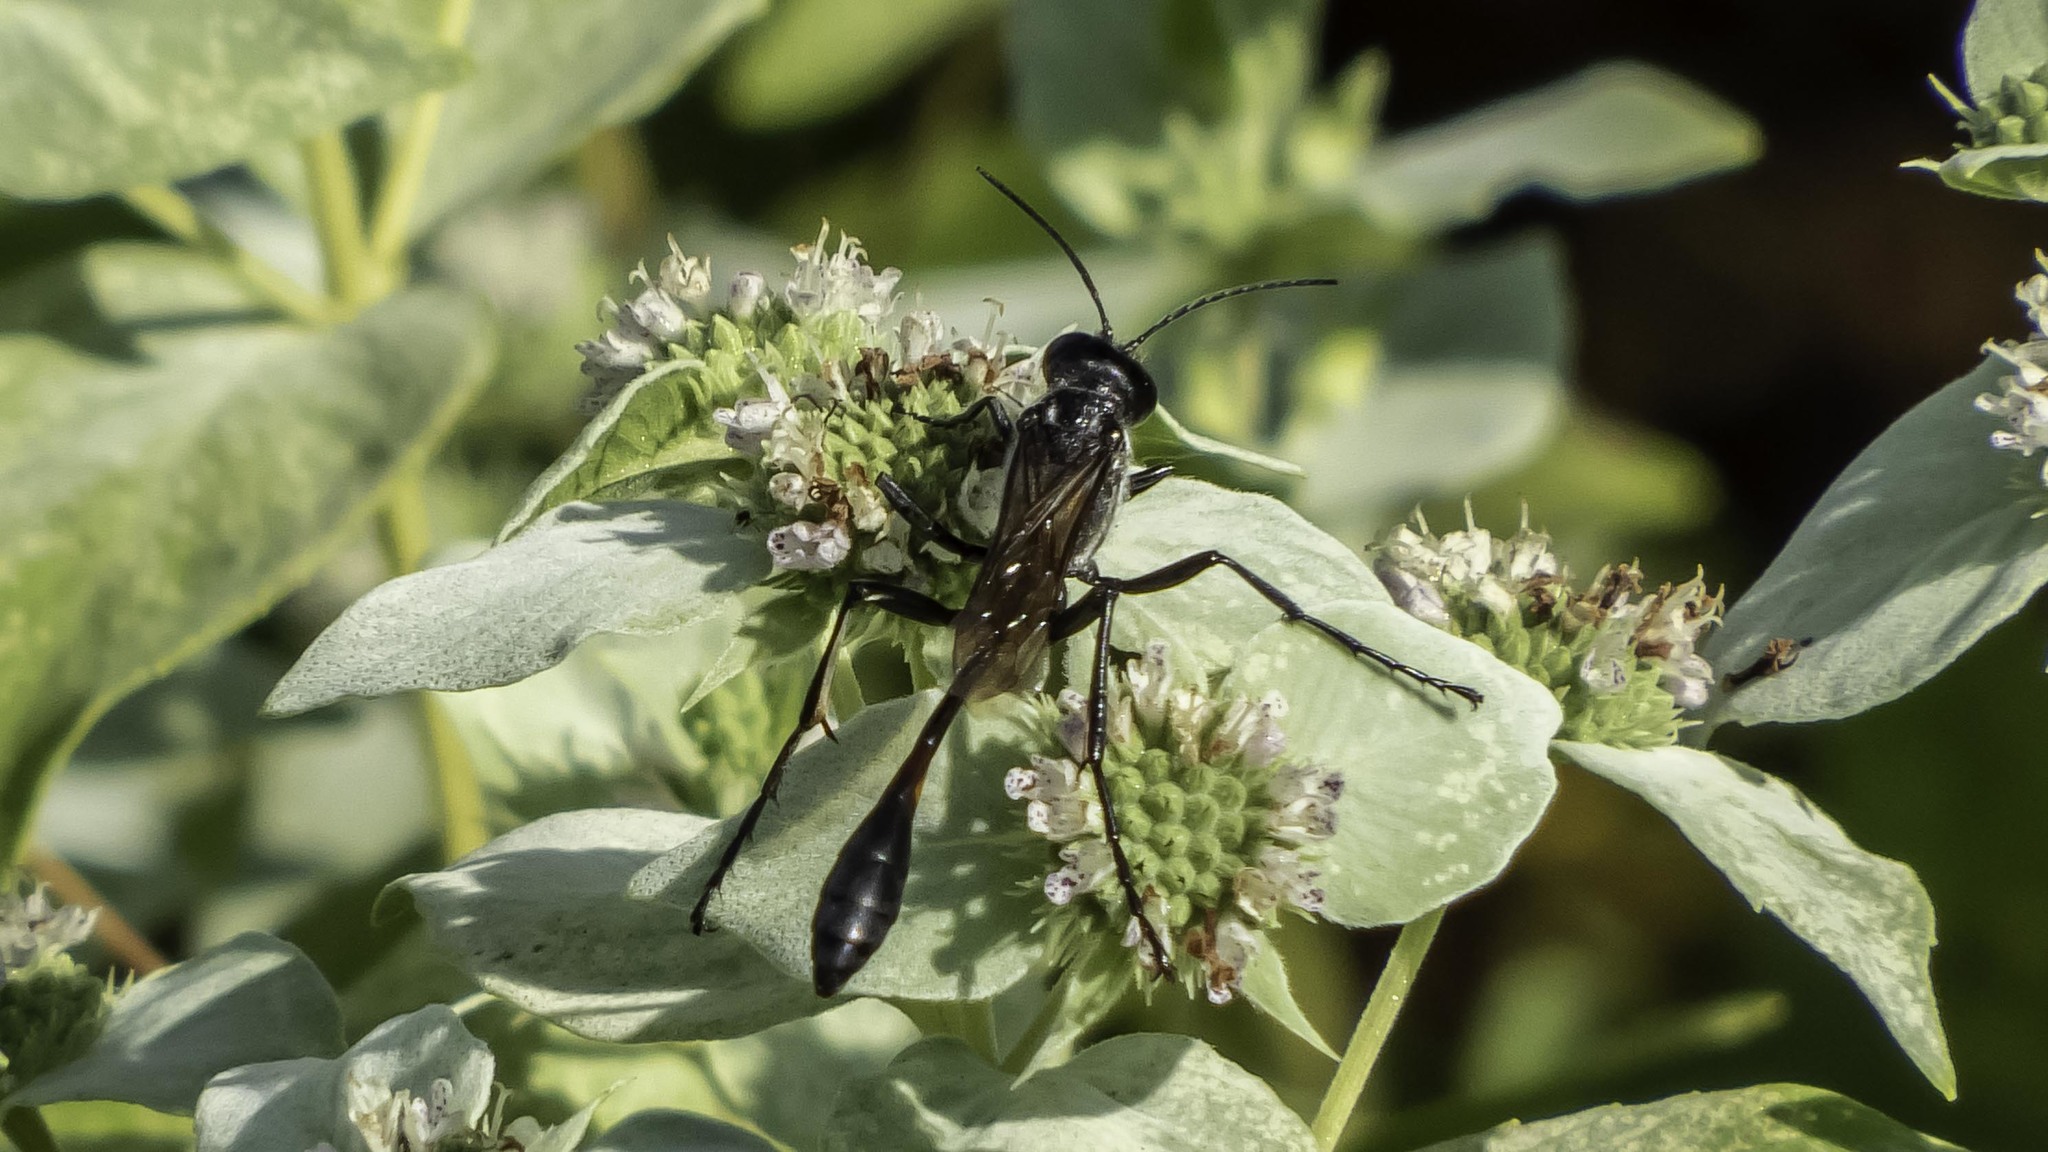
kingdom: Animalia
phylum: Arthropoda
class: Insecta
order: Hymenoptera
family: Sphecidae
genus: Eremnophila
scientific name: Eremnophila aureonotata
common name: Gold-marked thread-waisted wasp
